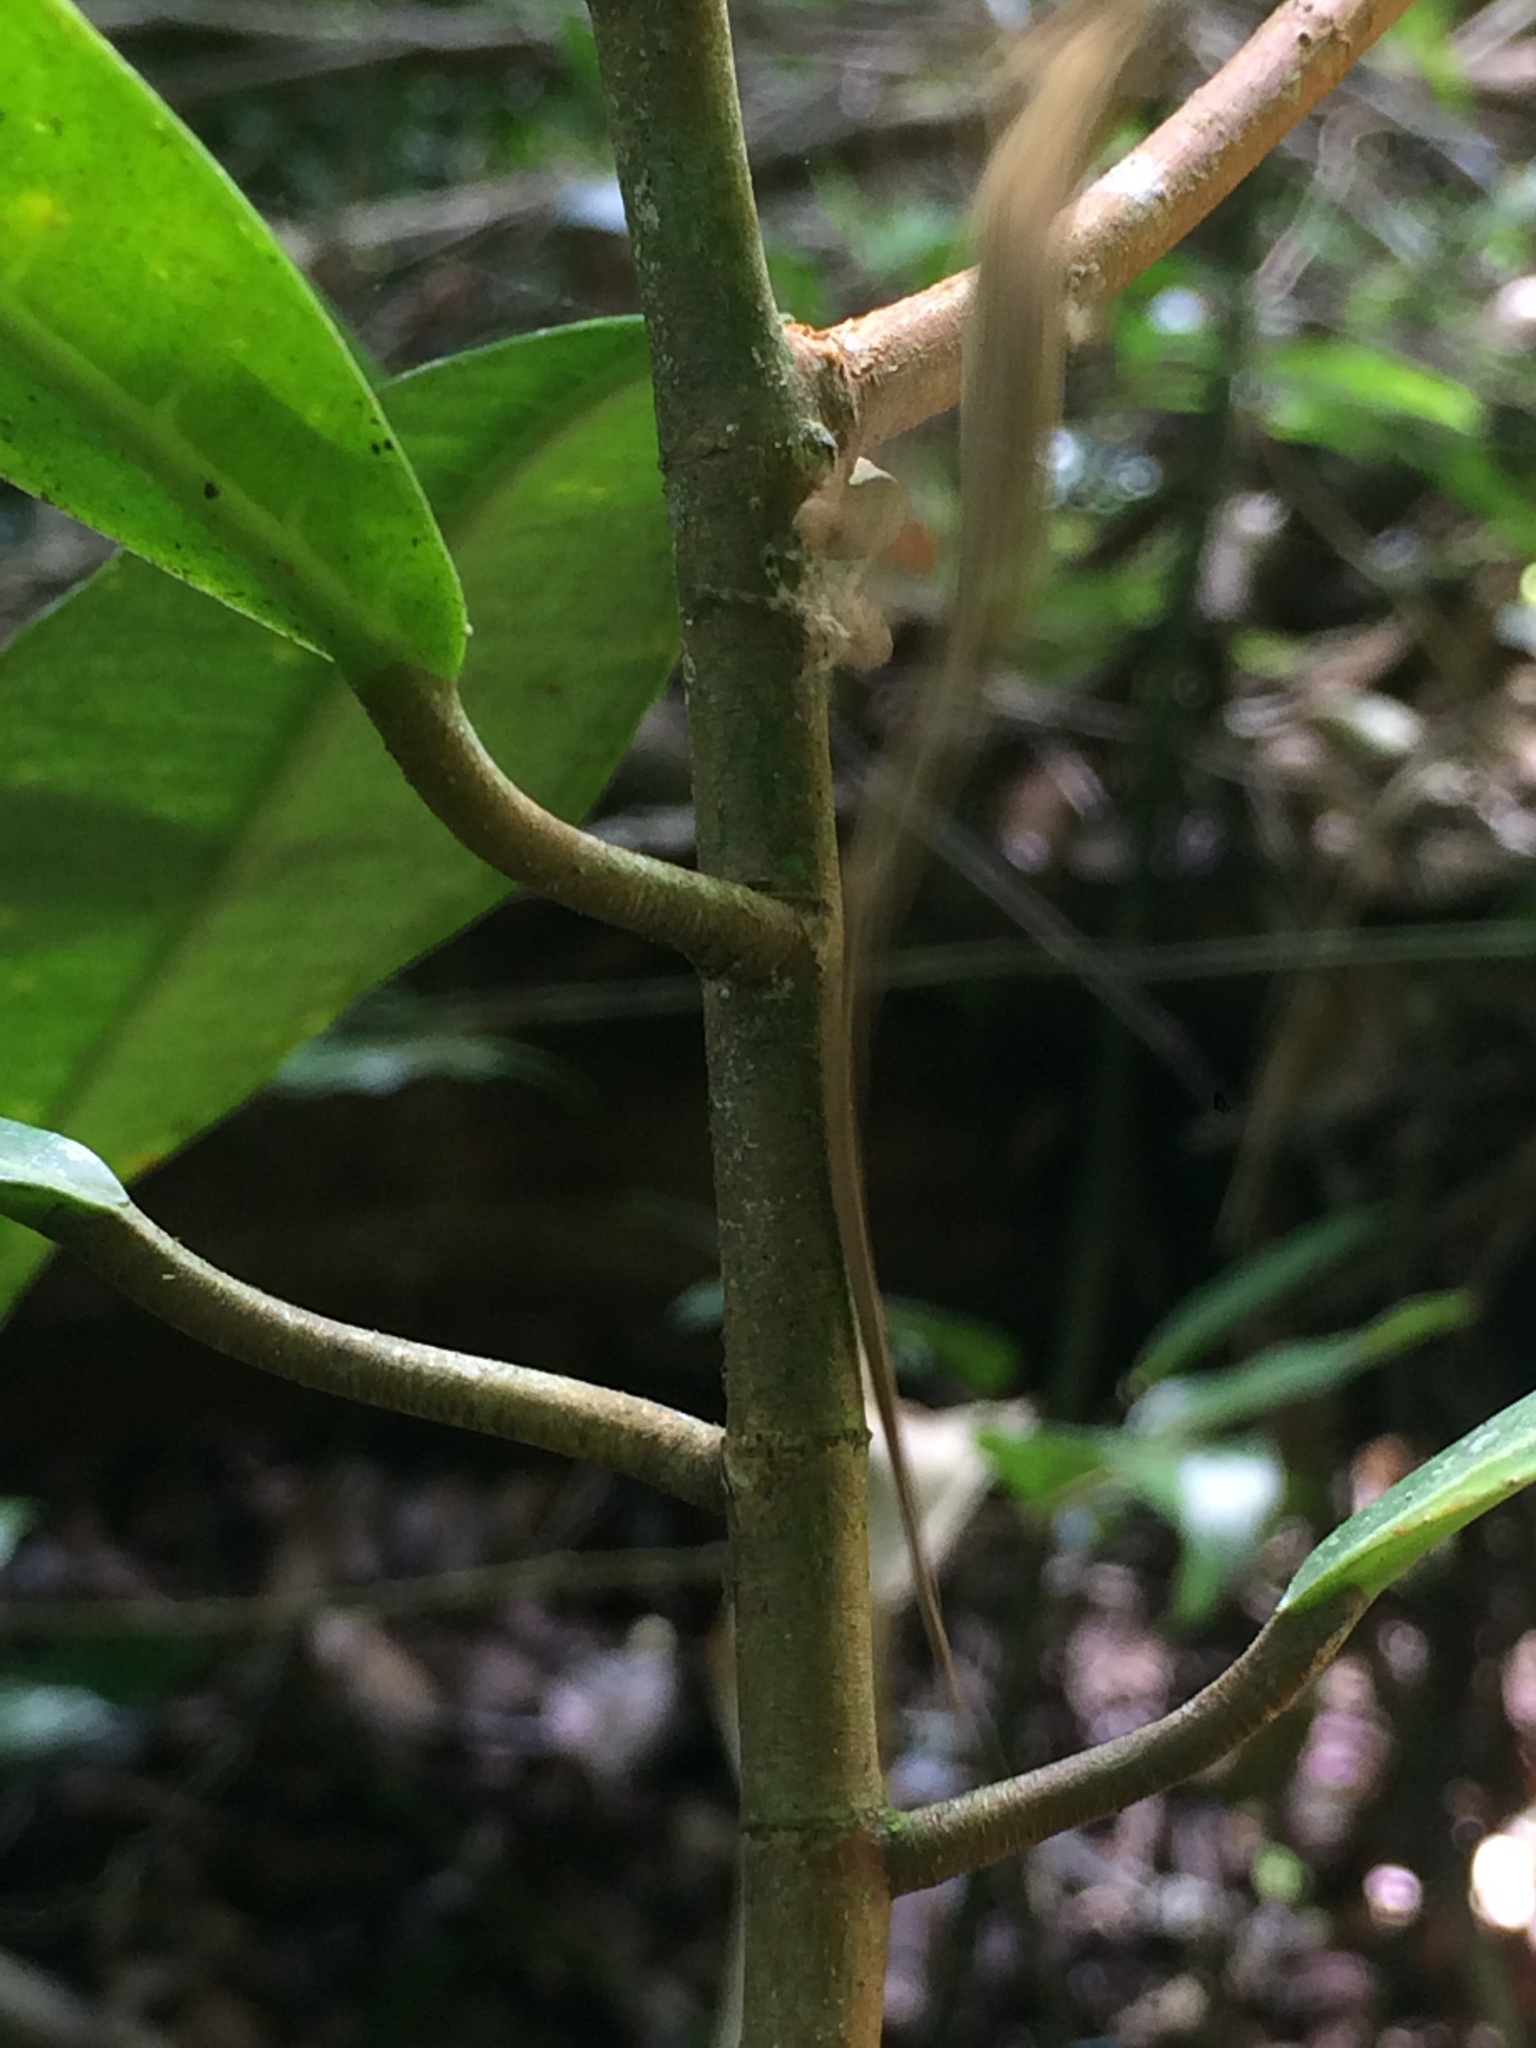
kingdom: Animalia
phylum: Chordata
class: Squamata
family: Dactyloidae
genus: Anolis
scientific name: Anolis fuscoauratus
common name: Brown-eared anole
